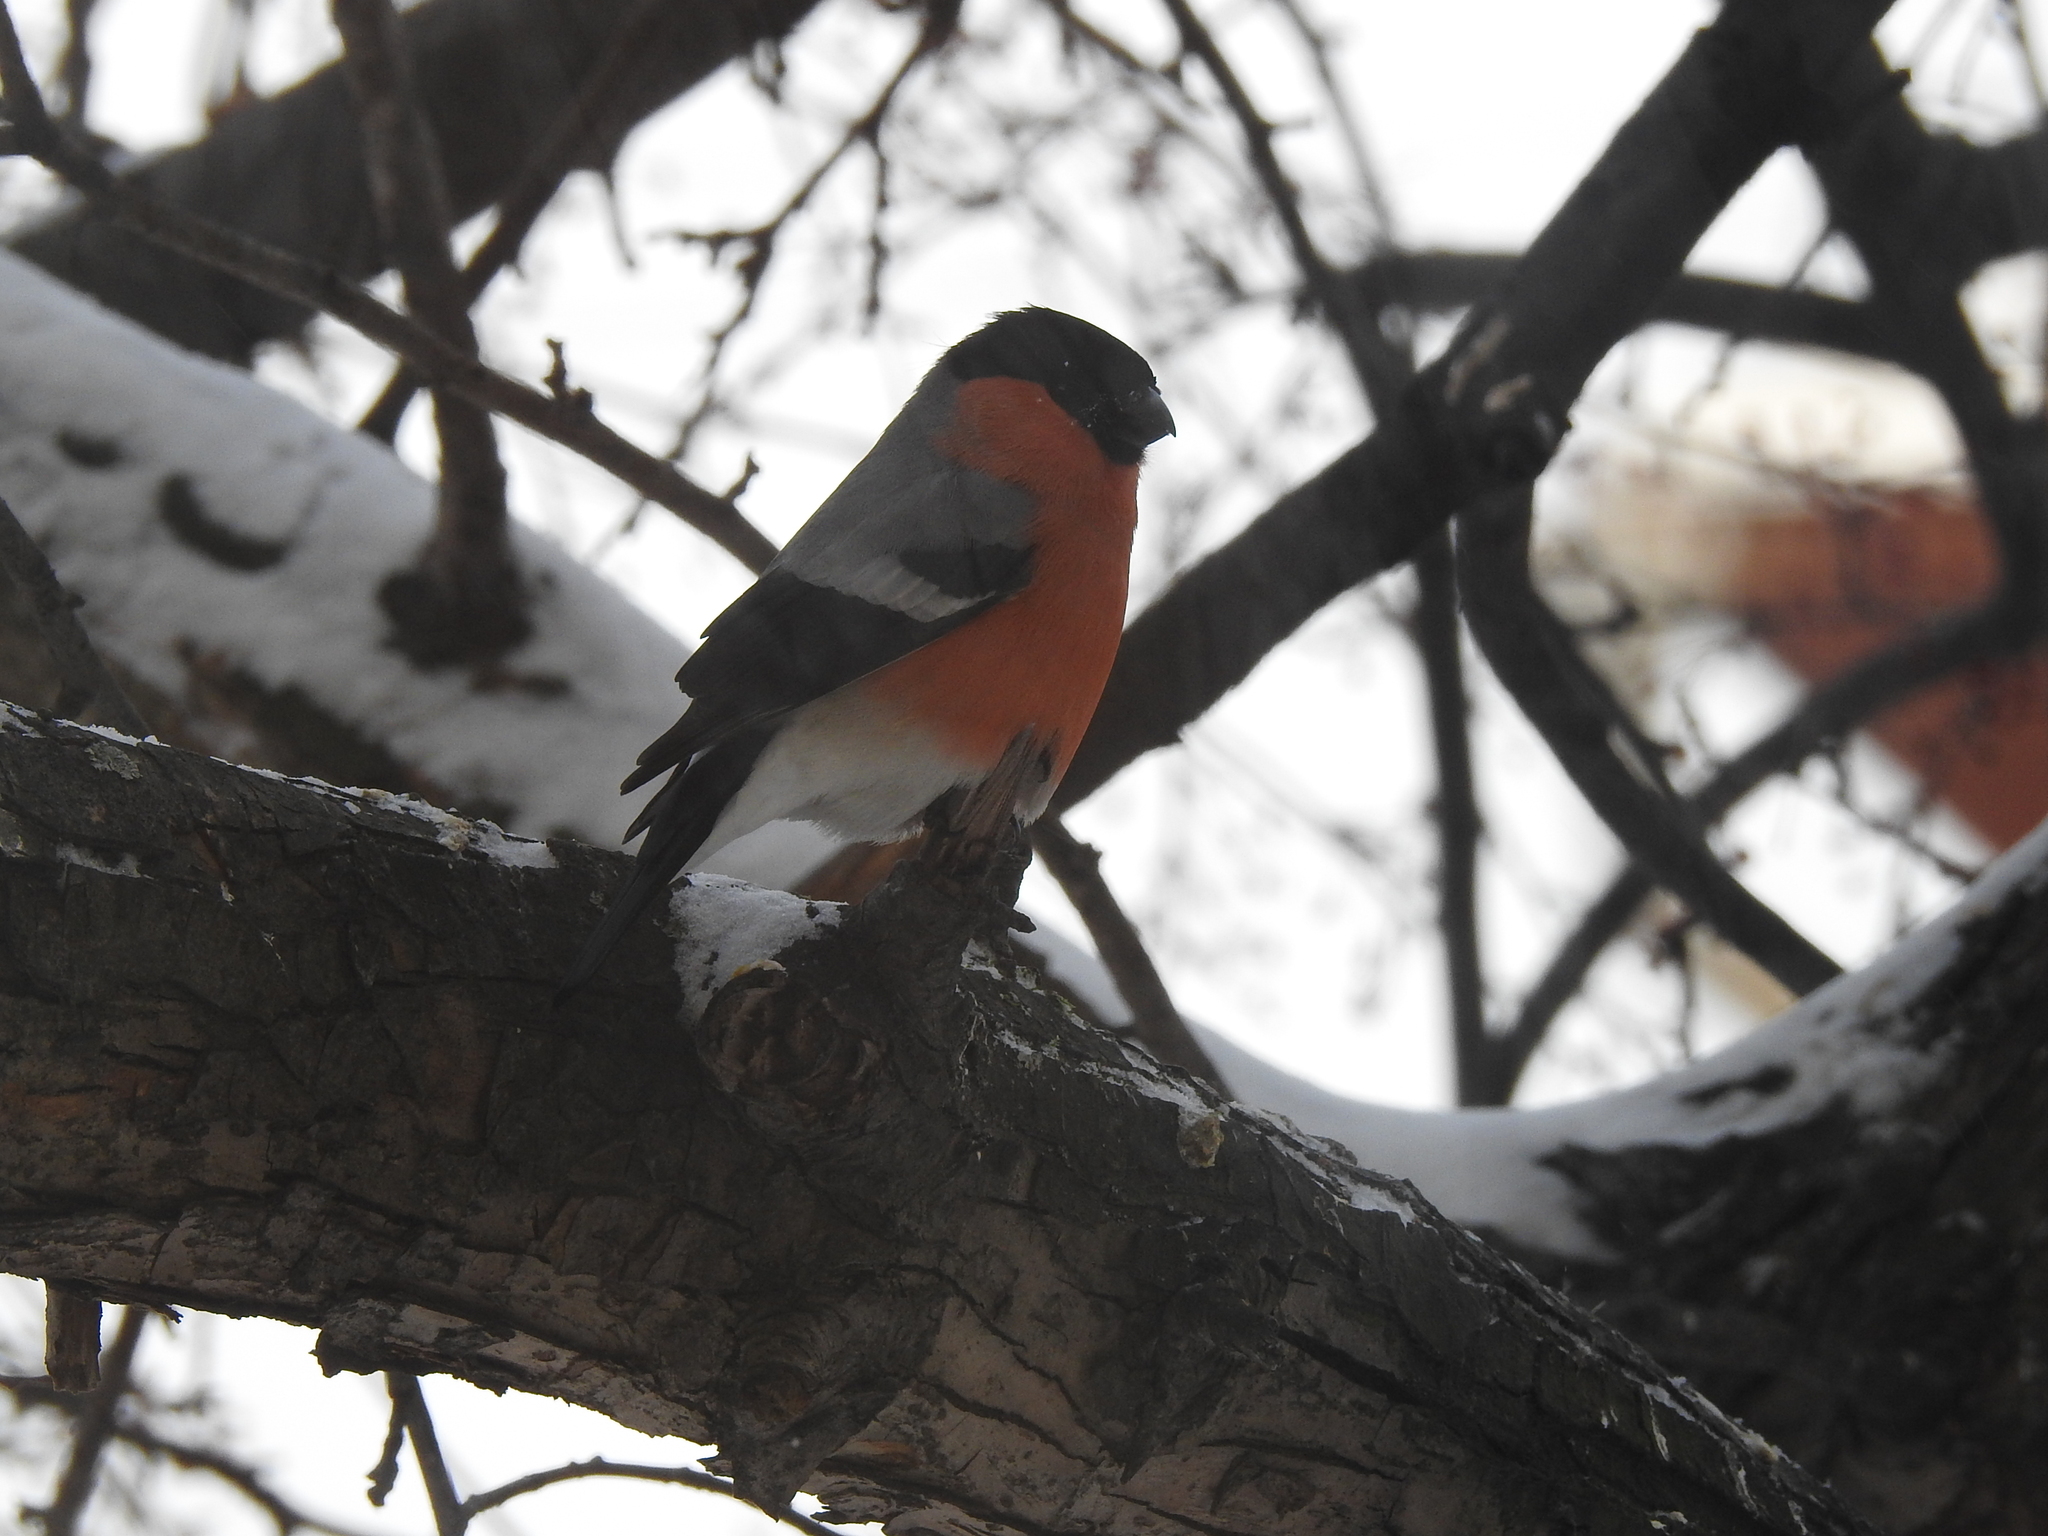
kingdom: Animalia
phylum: Chordata
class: Aves
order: Passeriformes
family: Fringillidae
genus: Pyrrhula
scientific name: Pyrrhula pyrrhula
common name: Eurasian bullfinch
